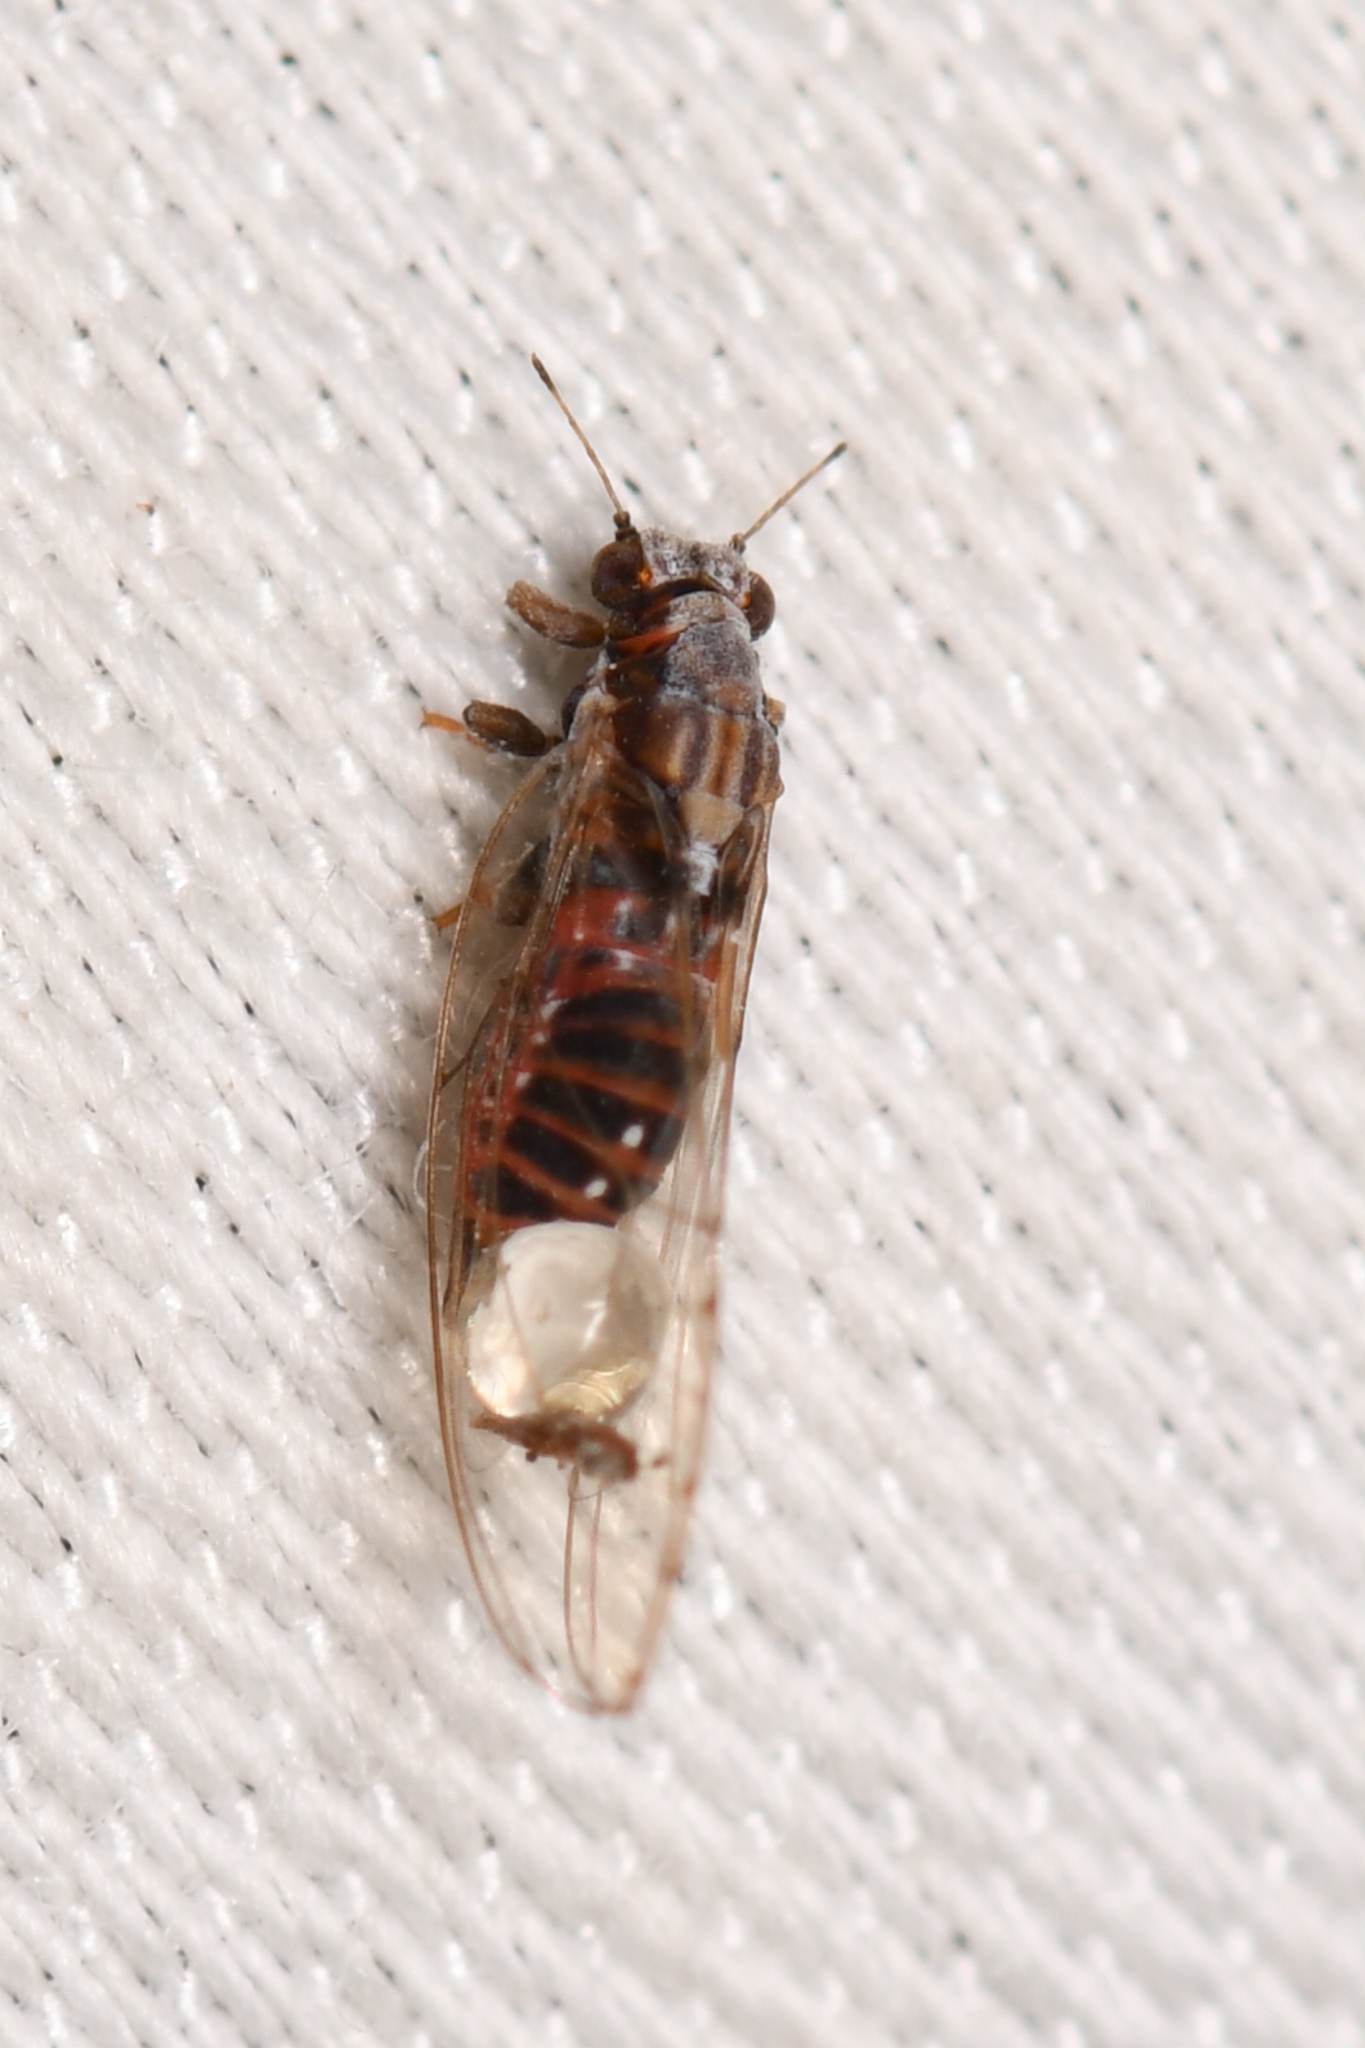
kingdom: Animalia
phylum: Arthropoda
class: Insecta
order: Hemiptera
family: Triozidae
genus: Trioza
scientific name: Trioza bakeri
